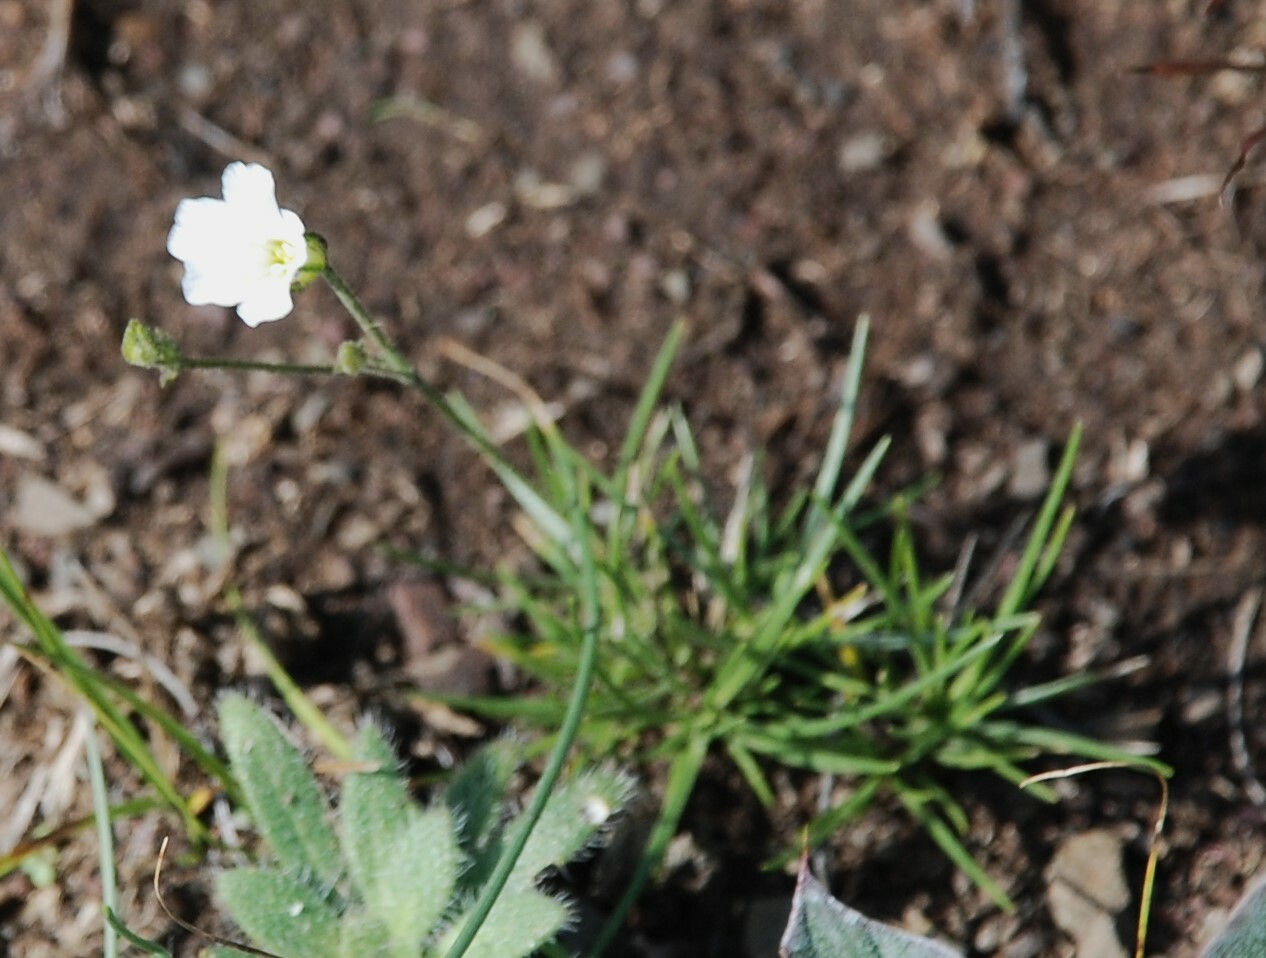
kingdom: Plantae
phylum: Tracheophyta
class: Magnoliopsida
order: Caryophyllales
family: Caryophyllaceae
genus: Eremogone
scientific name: Eremogone meyeri
